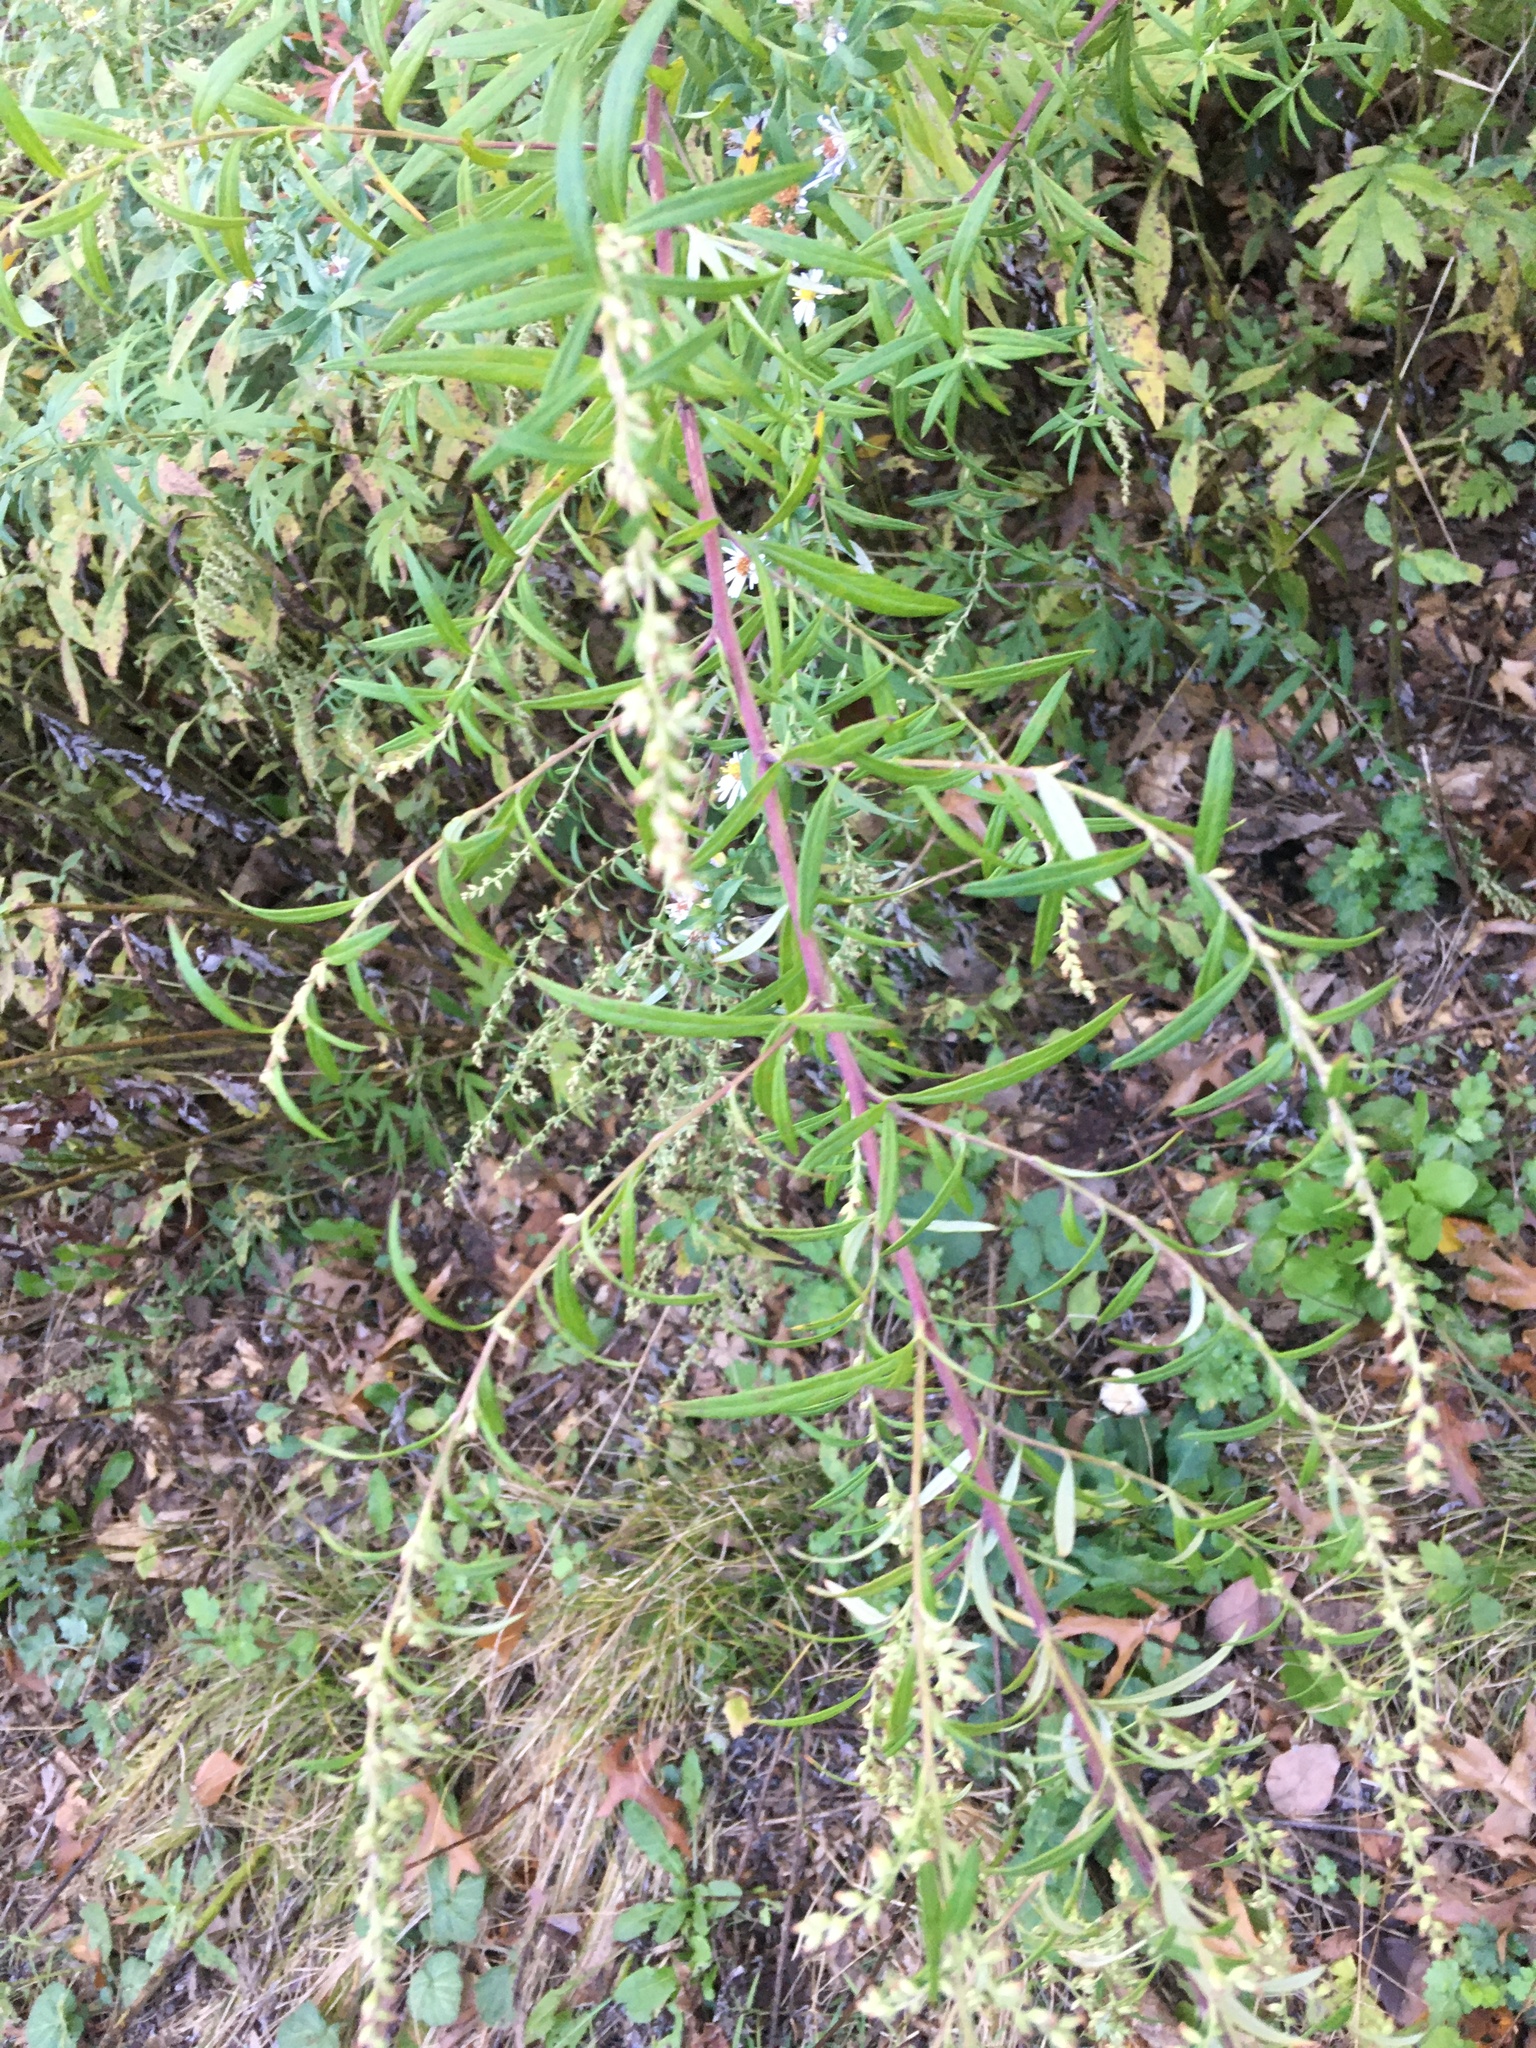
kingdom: Plantae
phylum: Tracheophyta
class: Magnoliopsida
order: Asterales
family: Asteraceae
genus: Artemisia
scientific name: Artemisia vulgaris
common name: Mugwort
